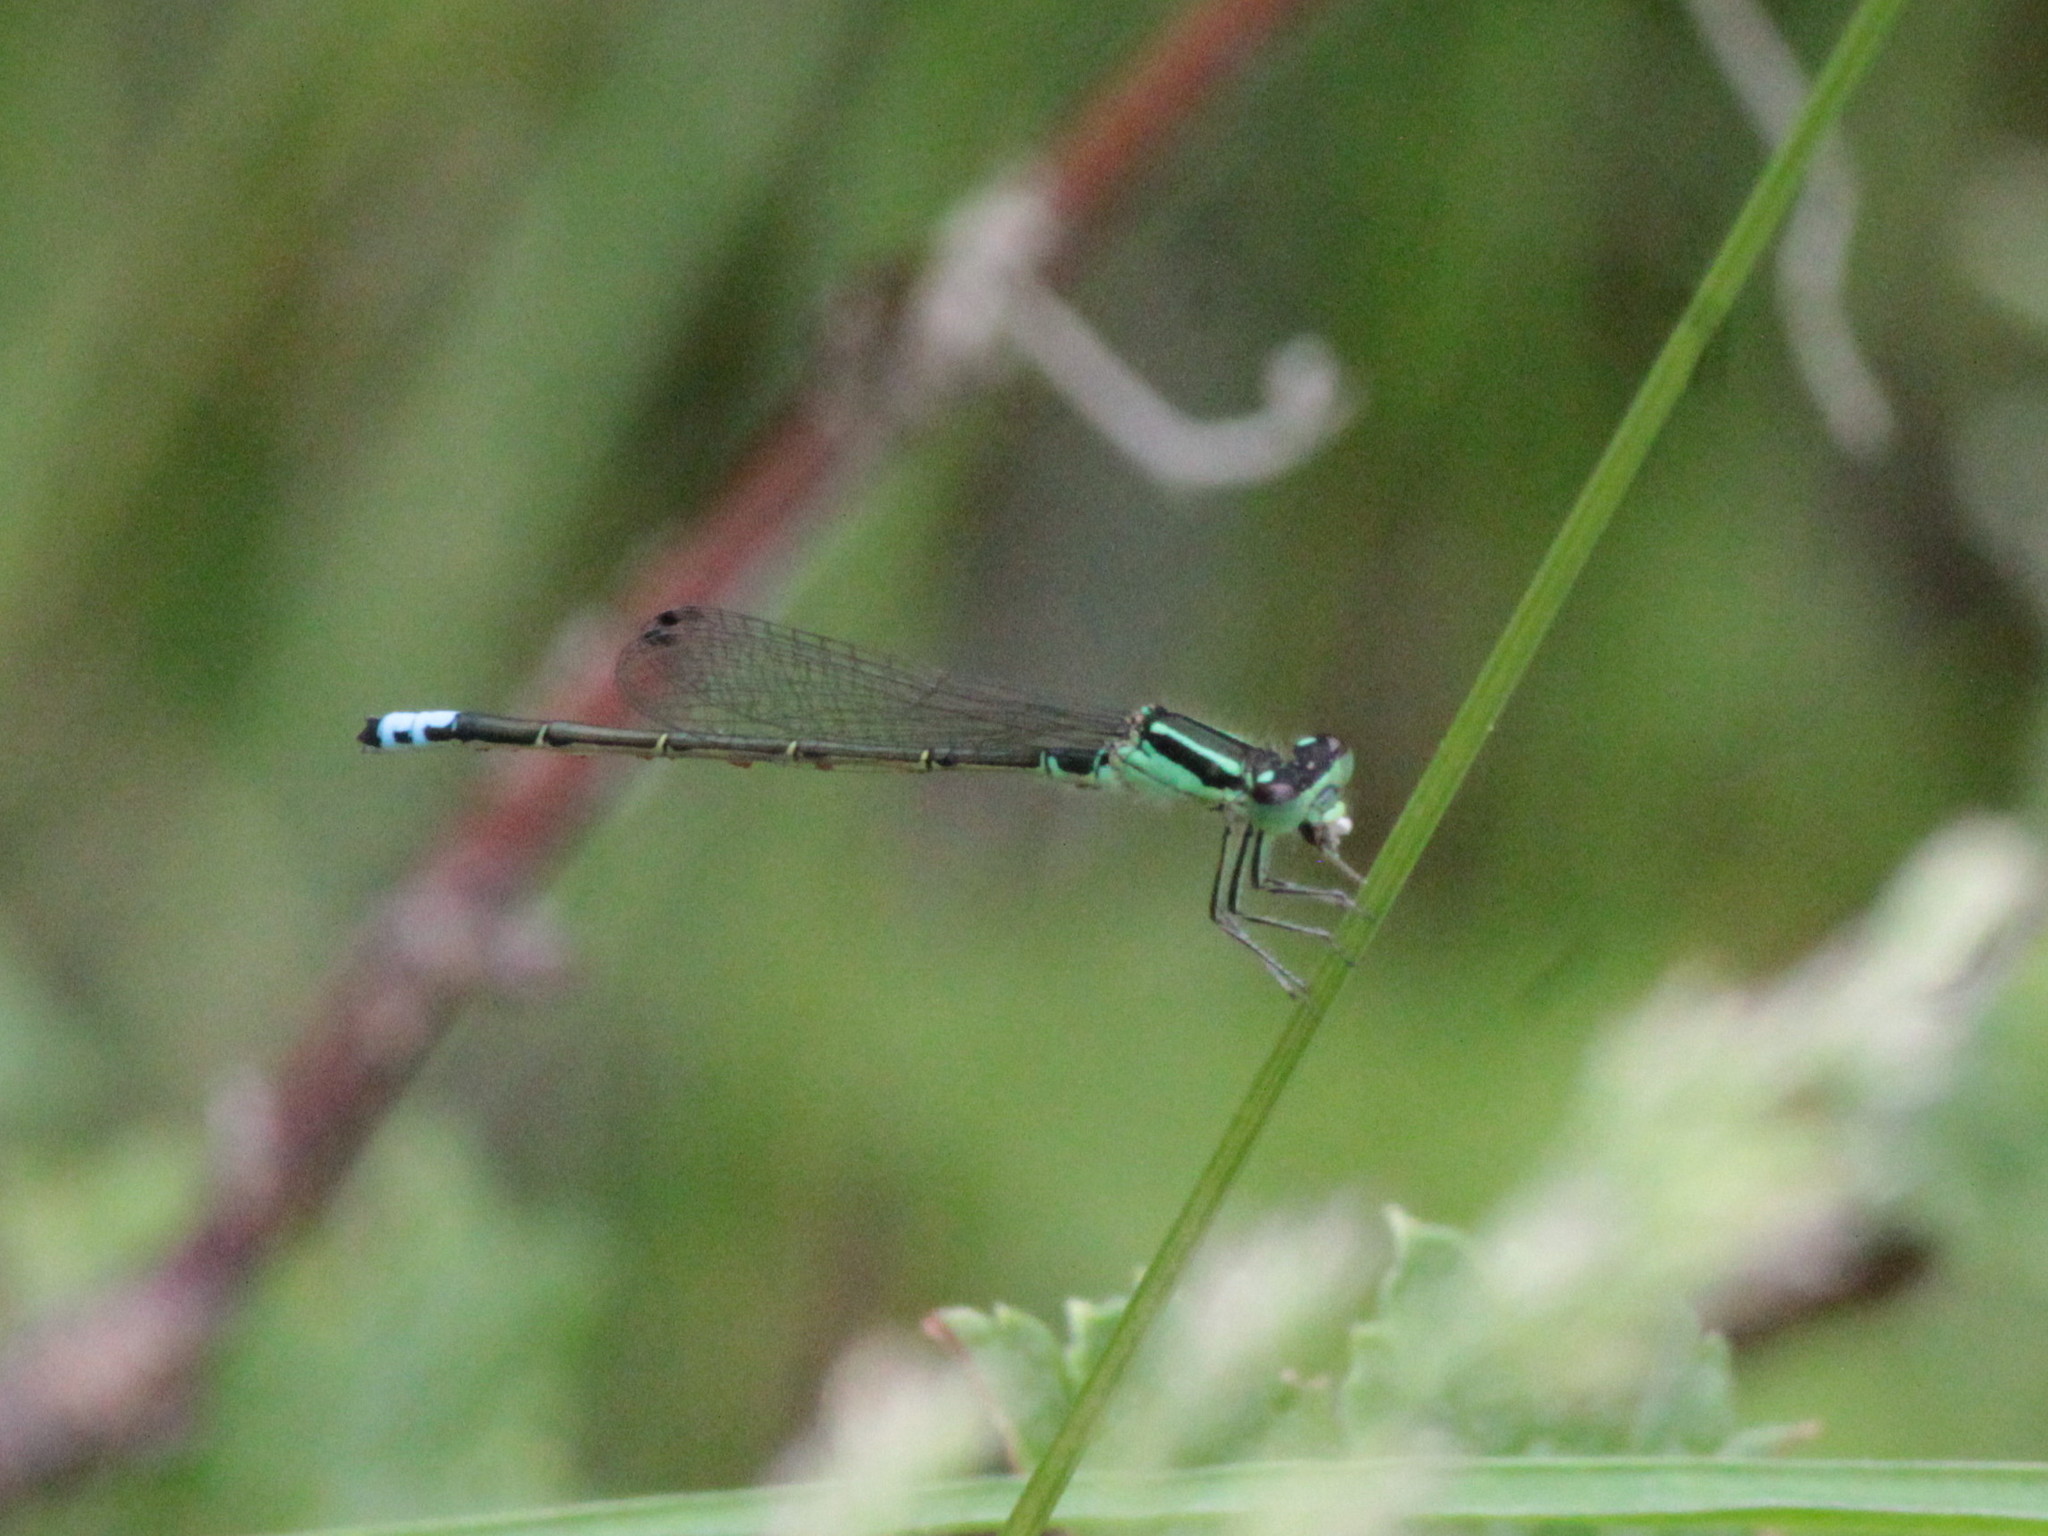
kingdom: Animalia
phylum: Arthropoda
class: Insecta
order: Odonata
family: Coenagrionidae
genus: Ischnura
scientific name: Ischnura verticalis
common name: Eastern forktail
